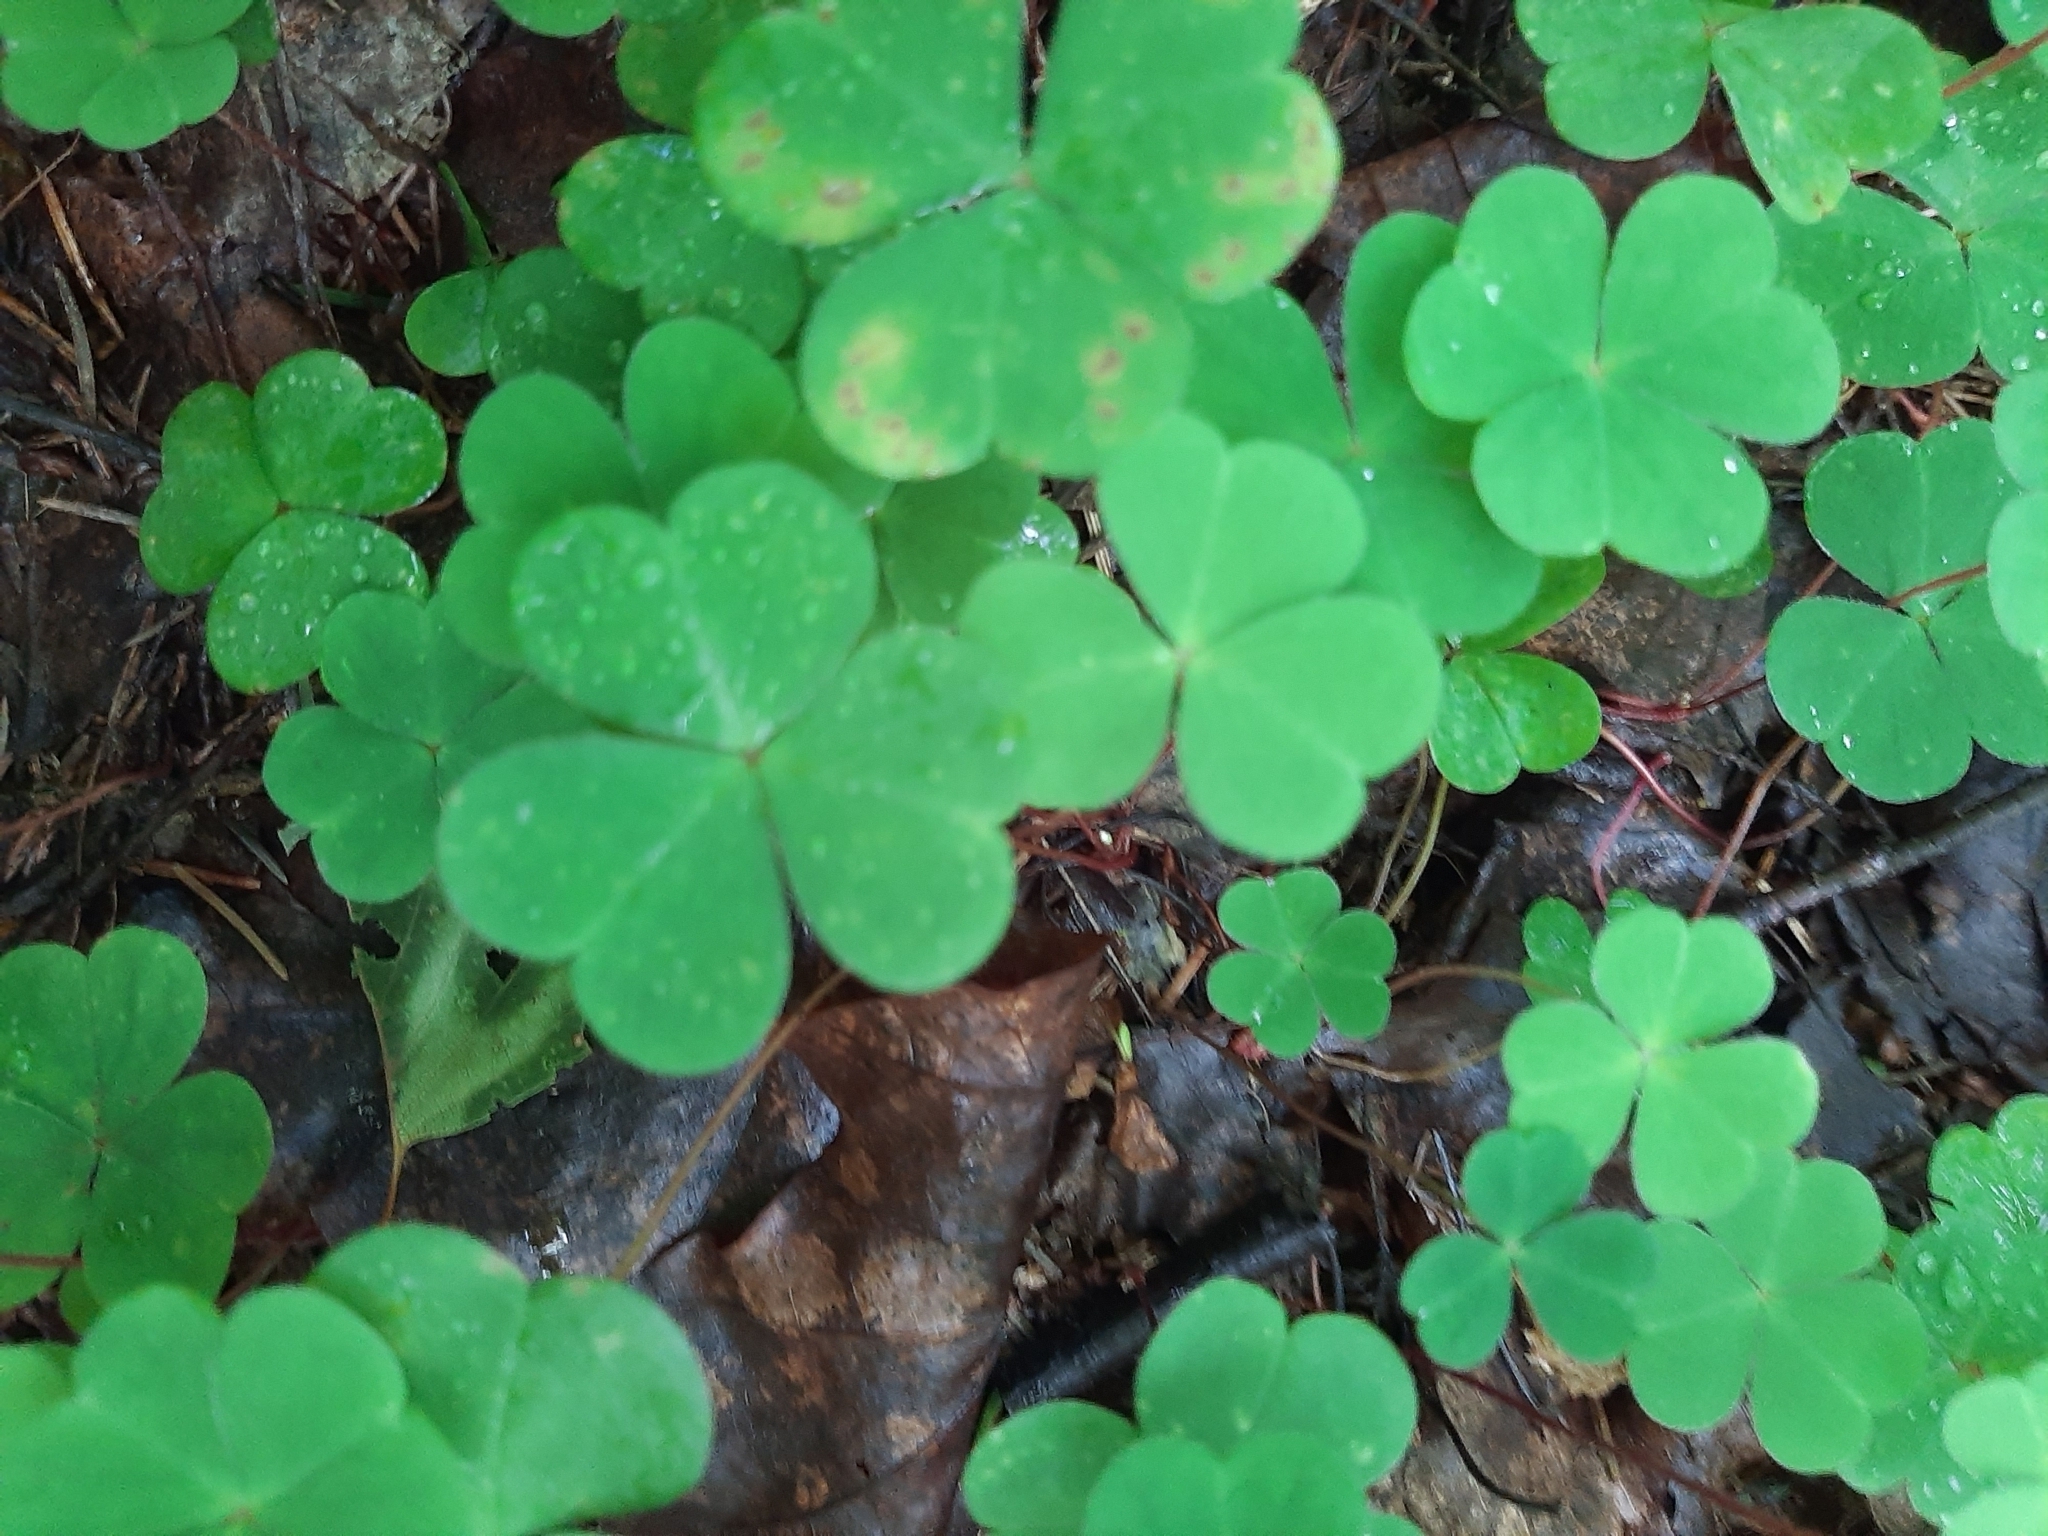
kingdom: Plantae
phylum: Tracheophyta
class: Magnoliopsida
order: Oxalidales
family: Oxalidaceae
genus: Oxalis
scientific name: Oxalis acetosella
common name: Wood-sorrel
